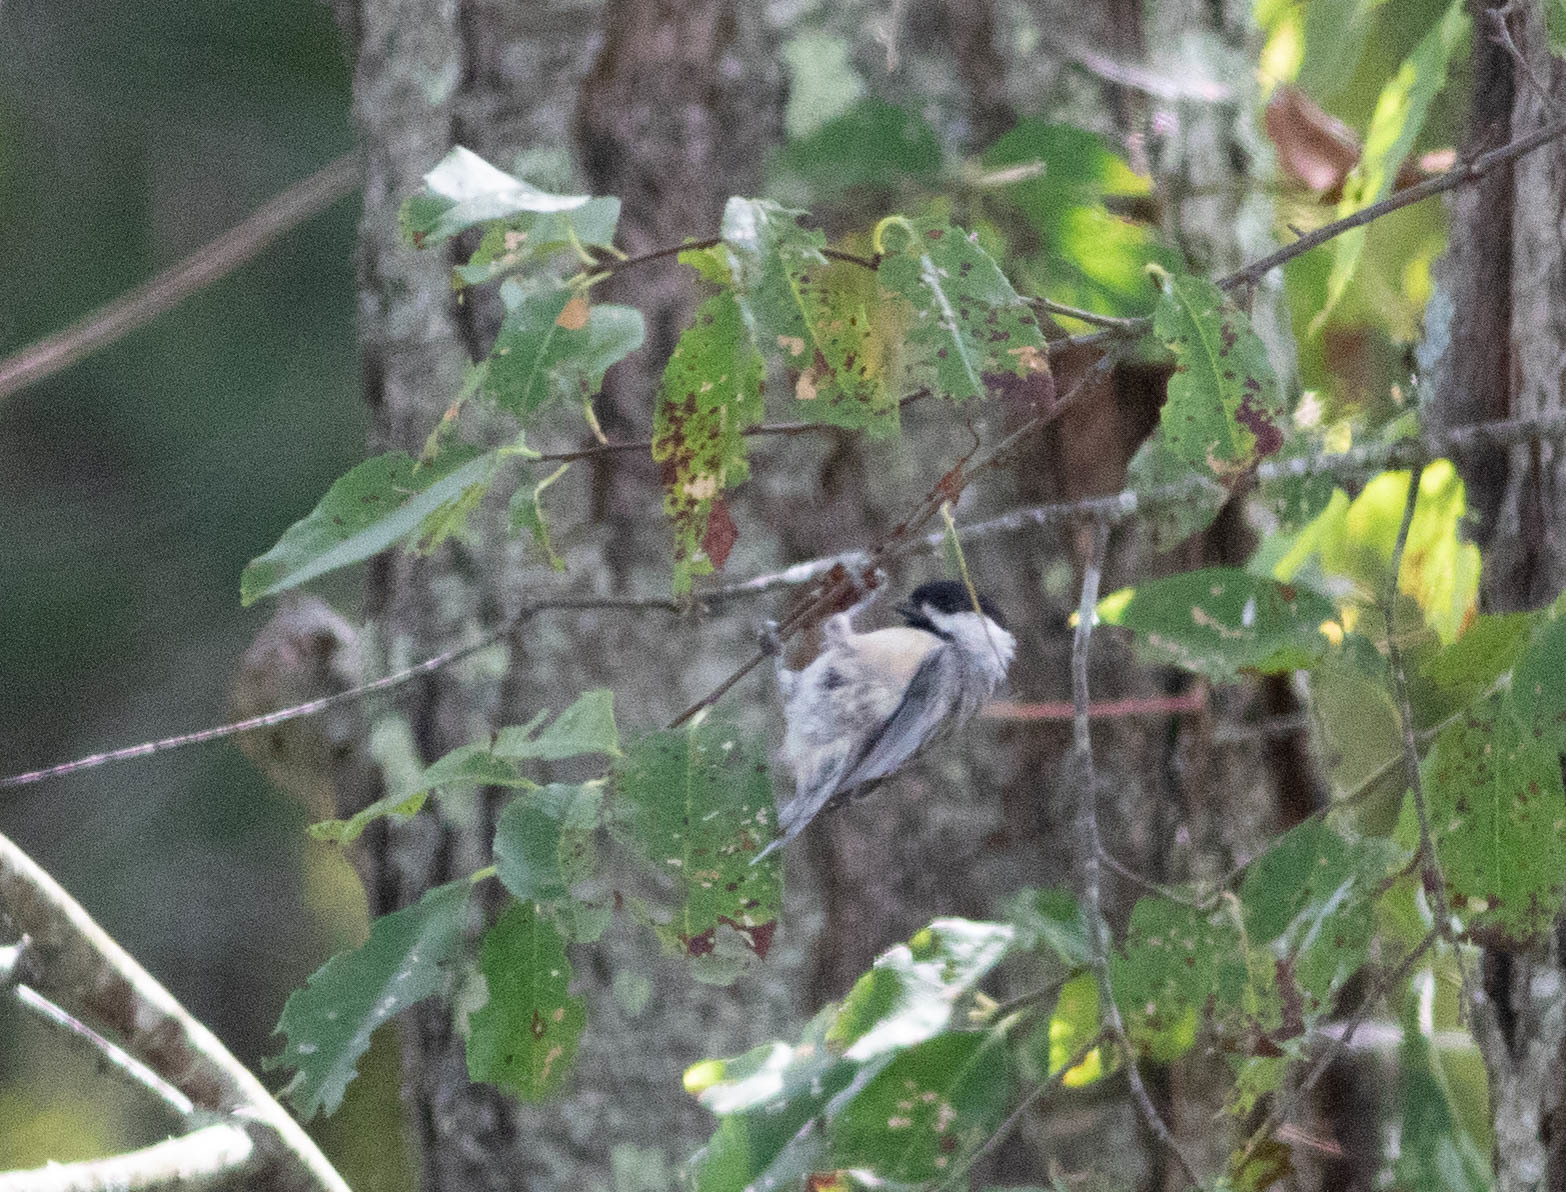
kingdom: Animalia
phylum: Chordata
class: Aves
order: Passeriformes
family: Paridae
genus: Poecile
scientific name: Poecile carolinensis
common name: Carolina chickadee
